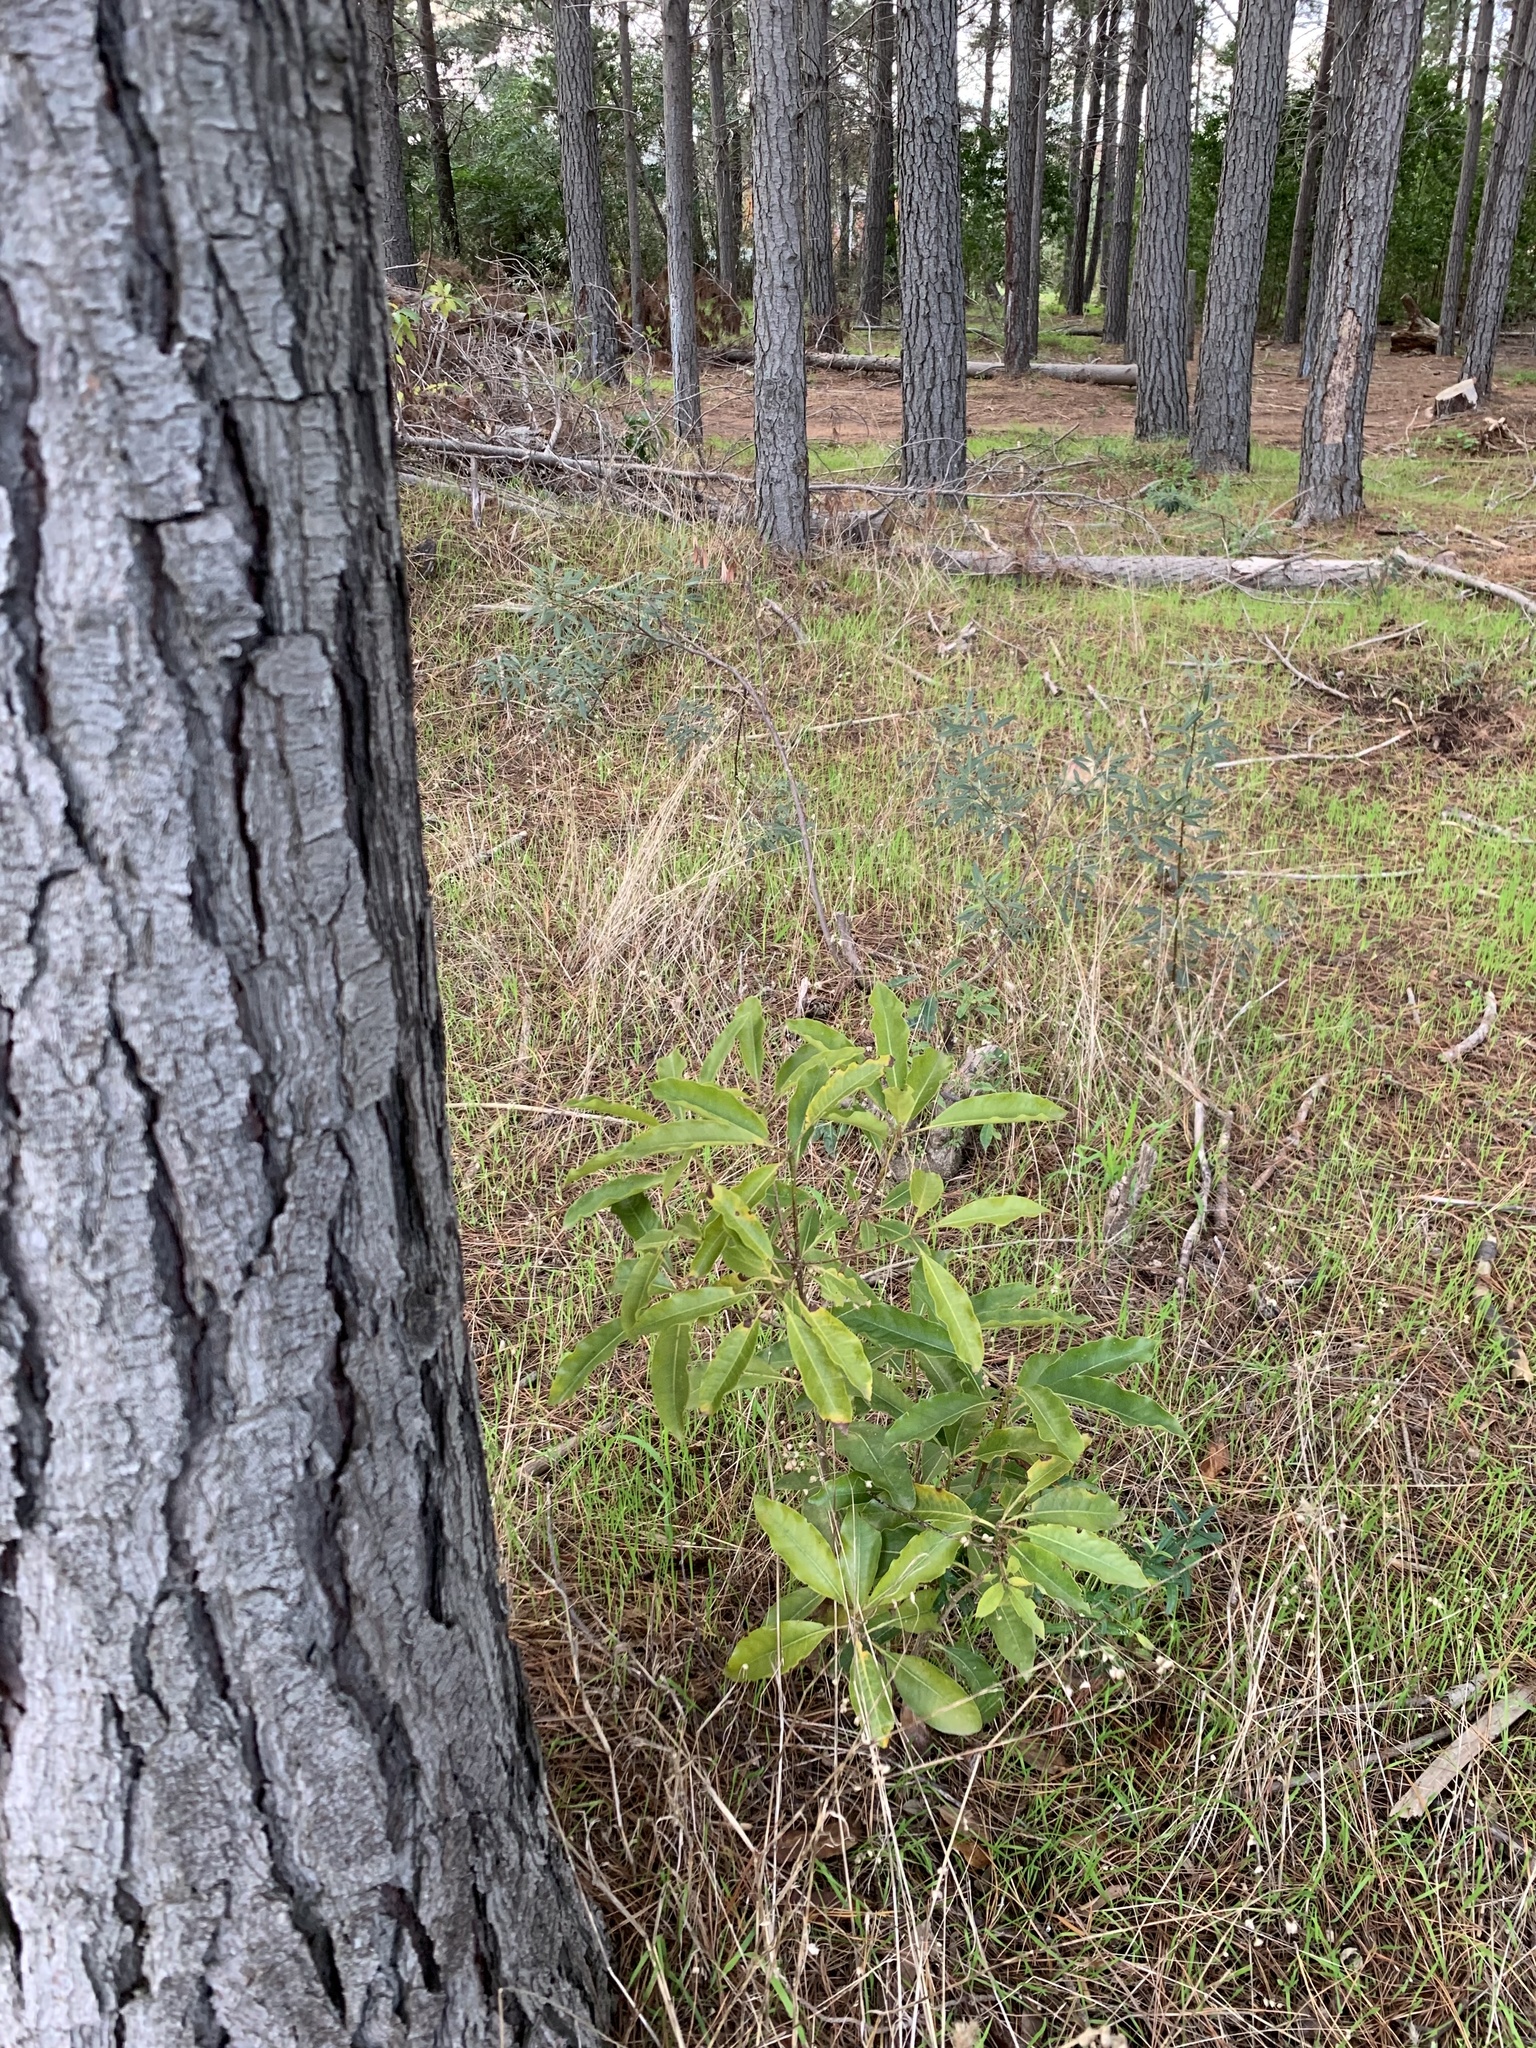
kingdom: Plantae
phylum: Tracheophyta
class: Magnoliopsida
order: Apiales
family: Pittosporaceae
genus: Pittosporum
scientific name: Pittosporum undulatum
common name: Australian cheesewood
